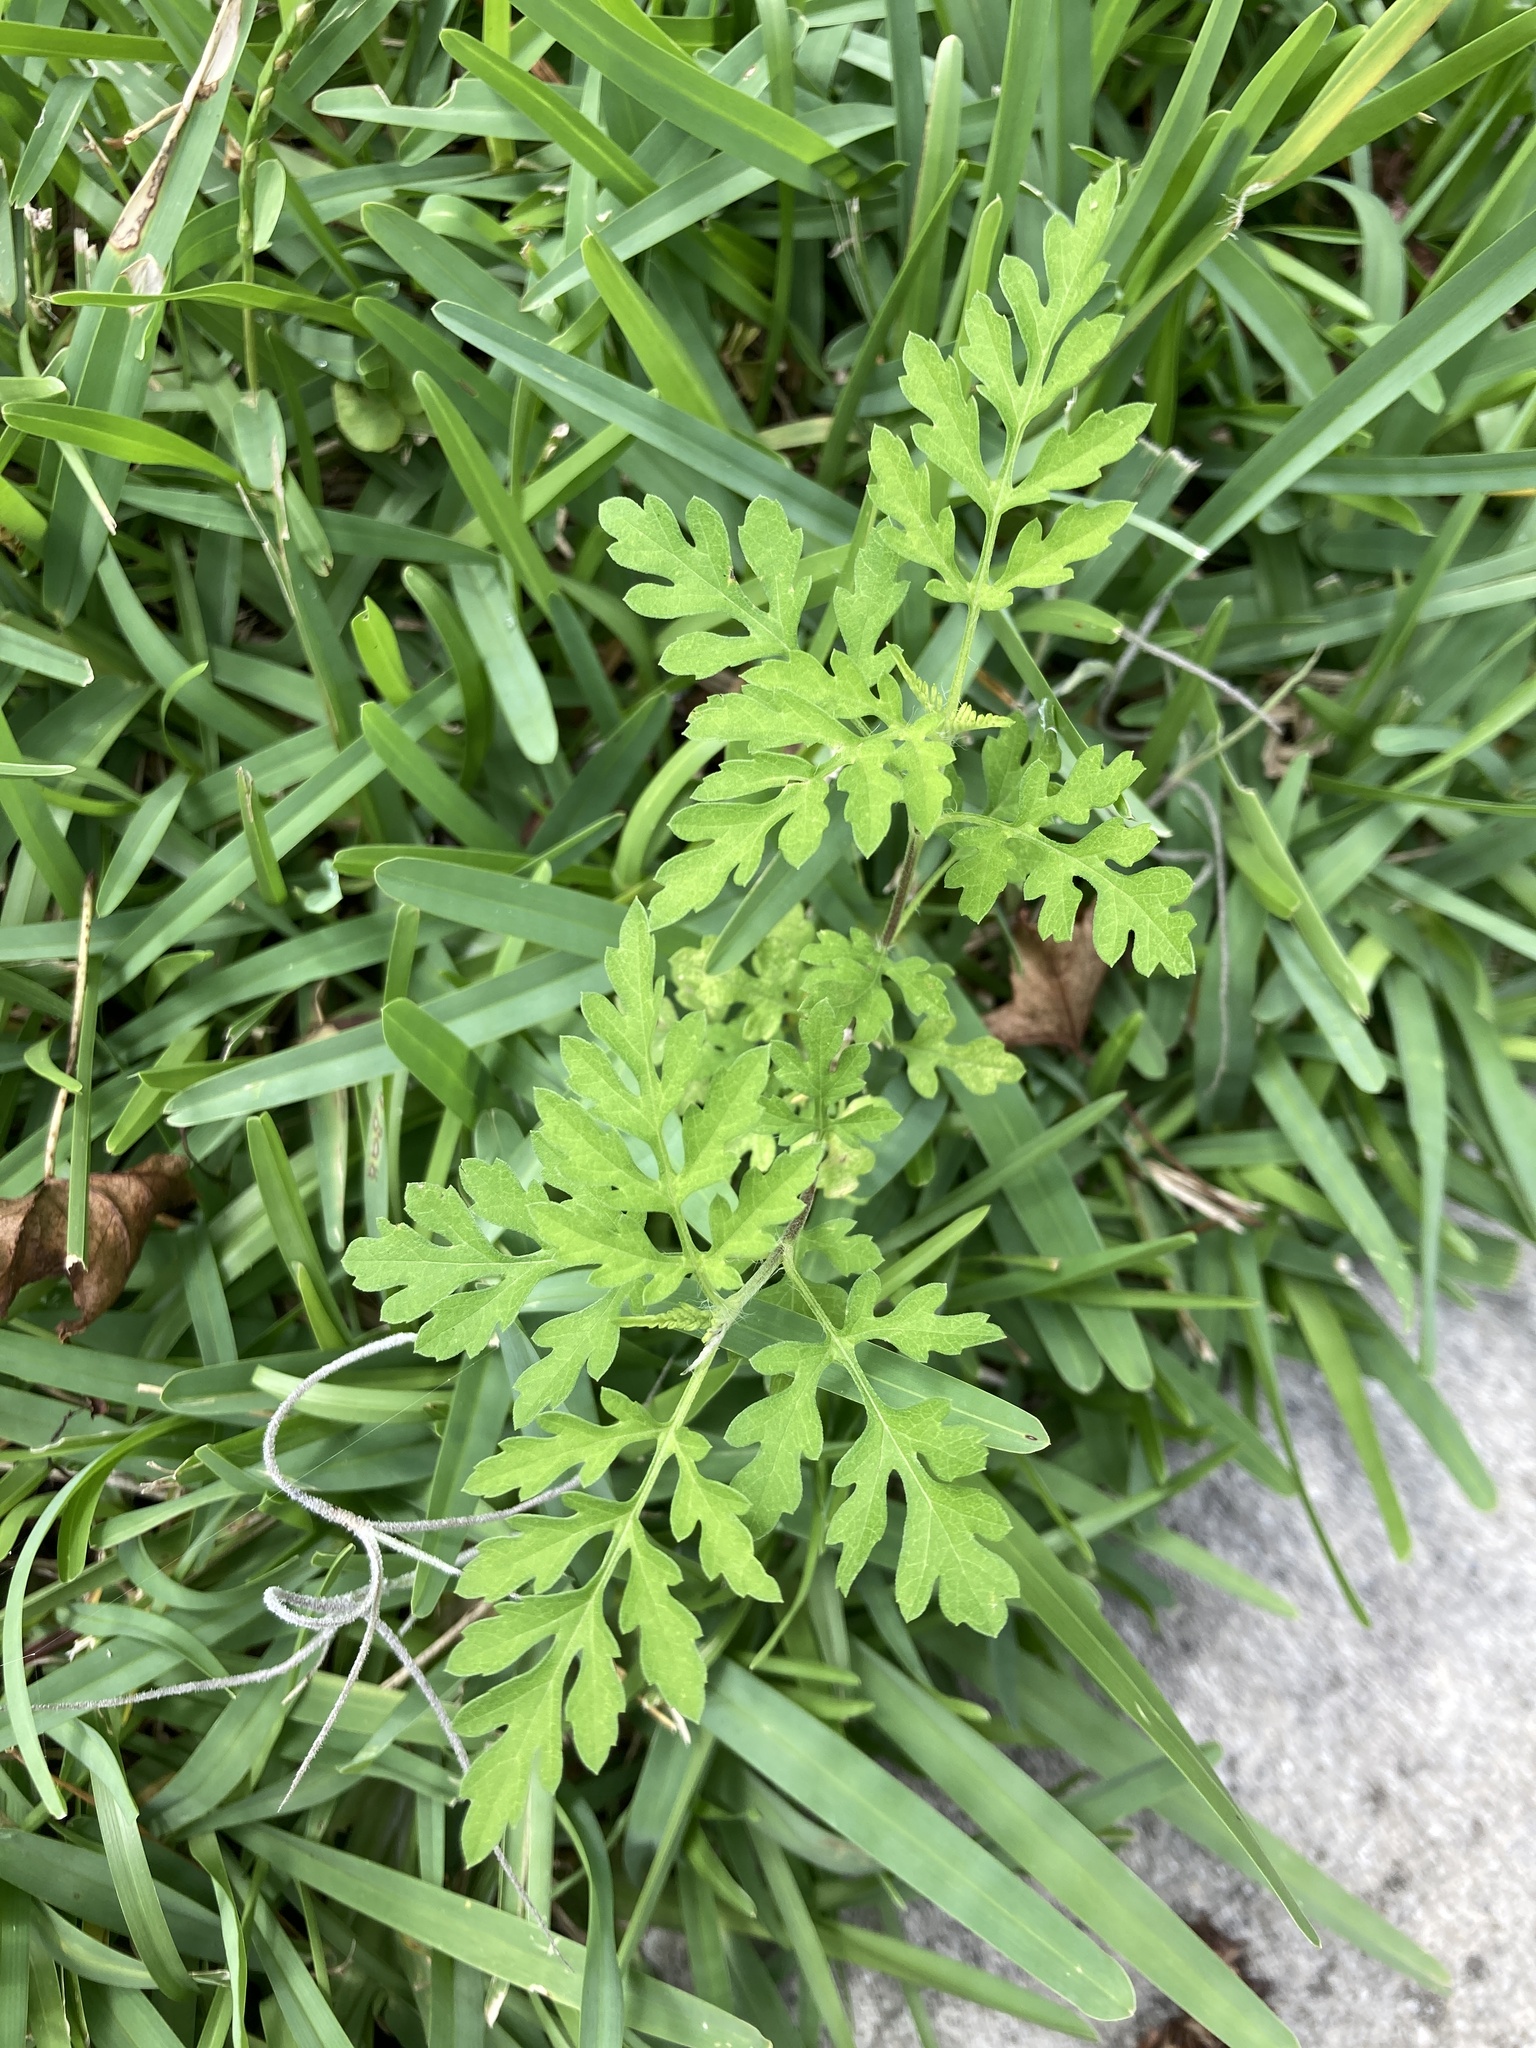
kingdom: Plantae
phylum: Tracheophyta
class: Magnoliopsida
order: Asterales
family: Asteraceae
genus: Ambrosia
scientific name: Ambrosia artemisiifolia
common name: Annual ragweed
